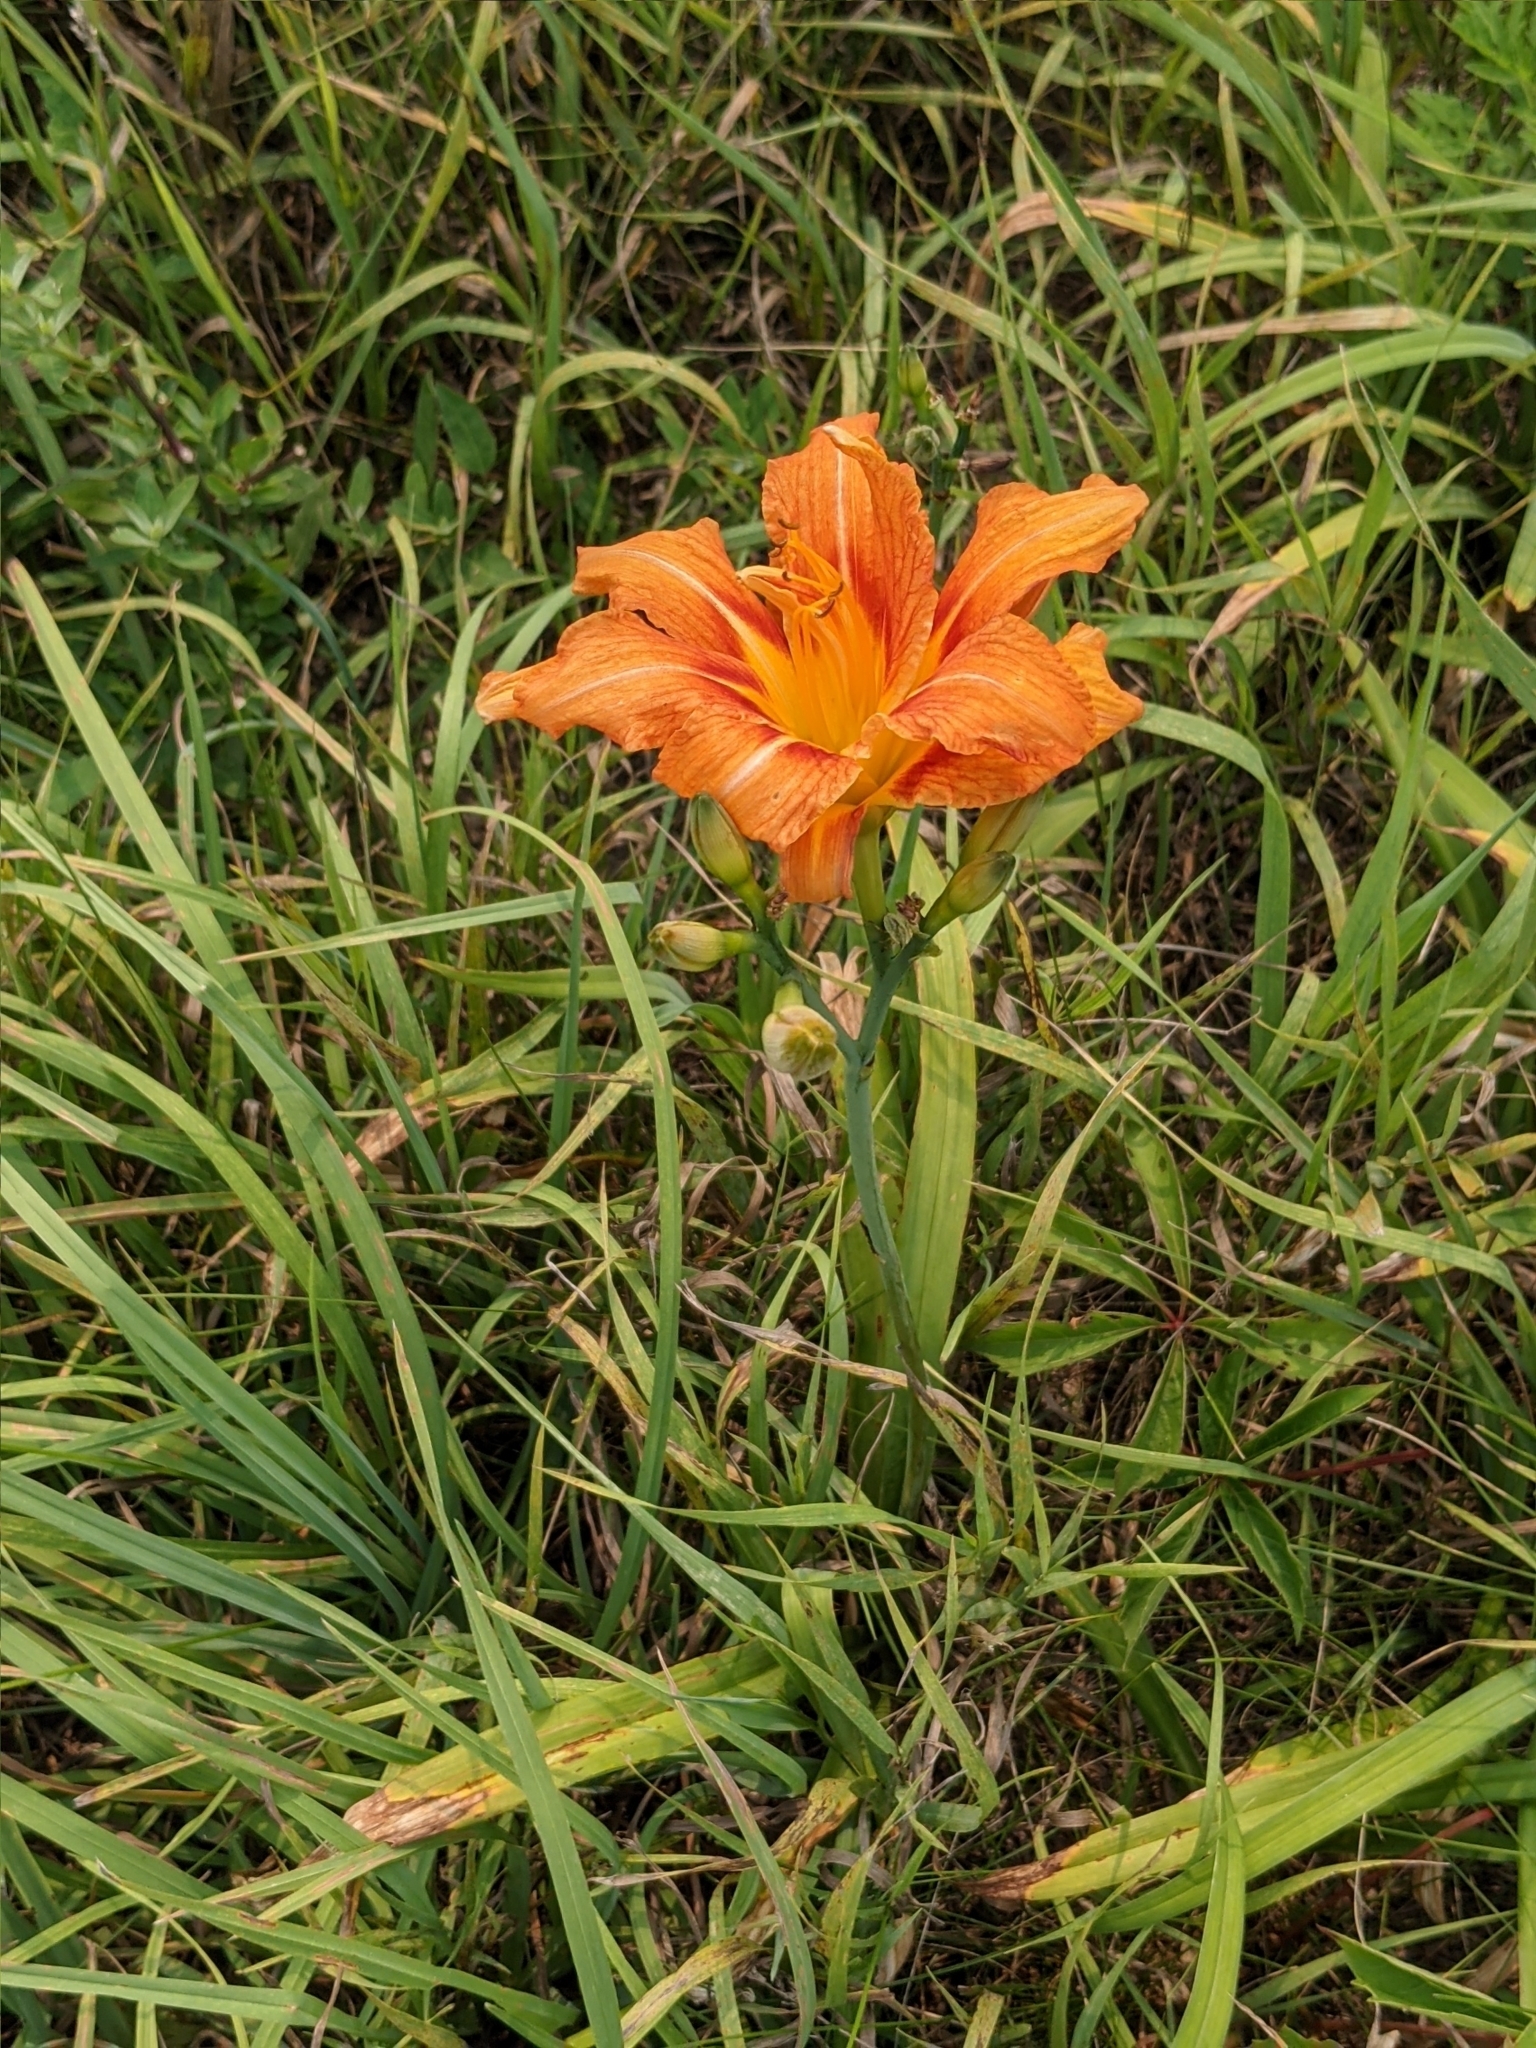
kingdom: Plantae
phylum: Tracheophyta
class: Liliopsida
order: Asparagales
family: Asphodelaceae
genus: Hemerocallis
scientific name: Hemerocallis fulva
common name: Orange day-lily
